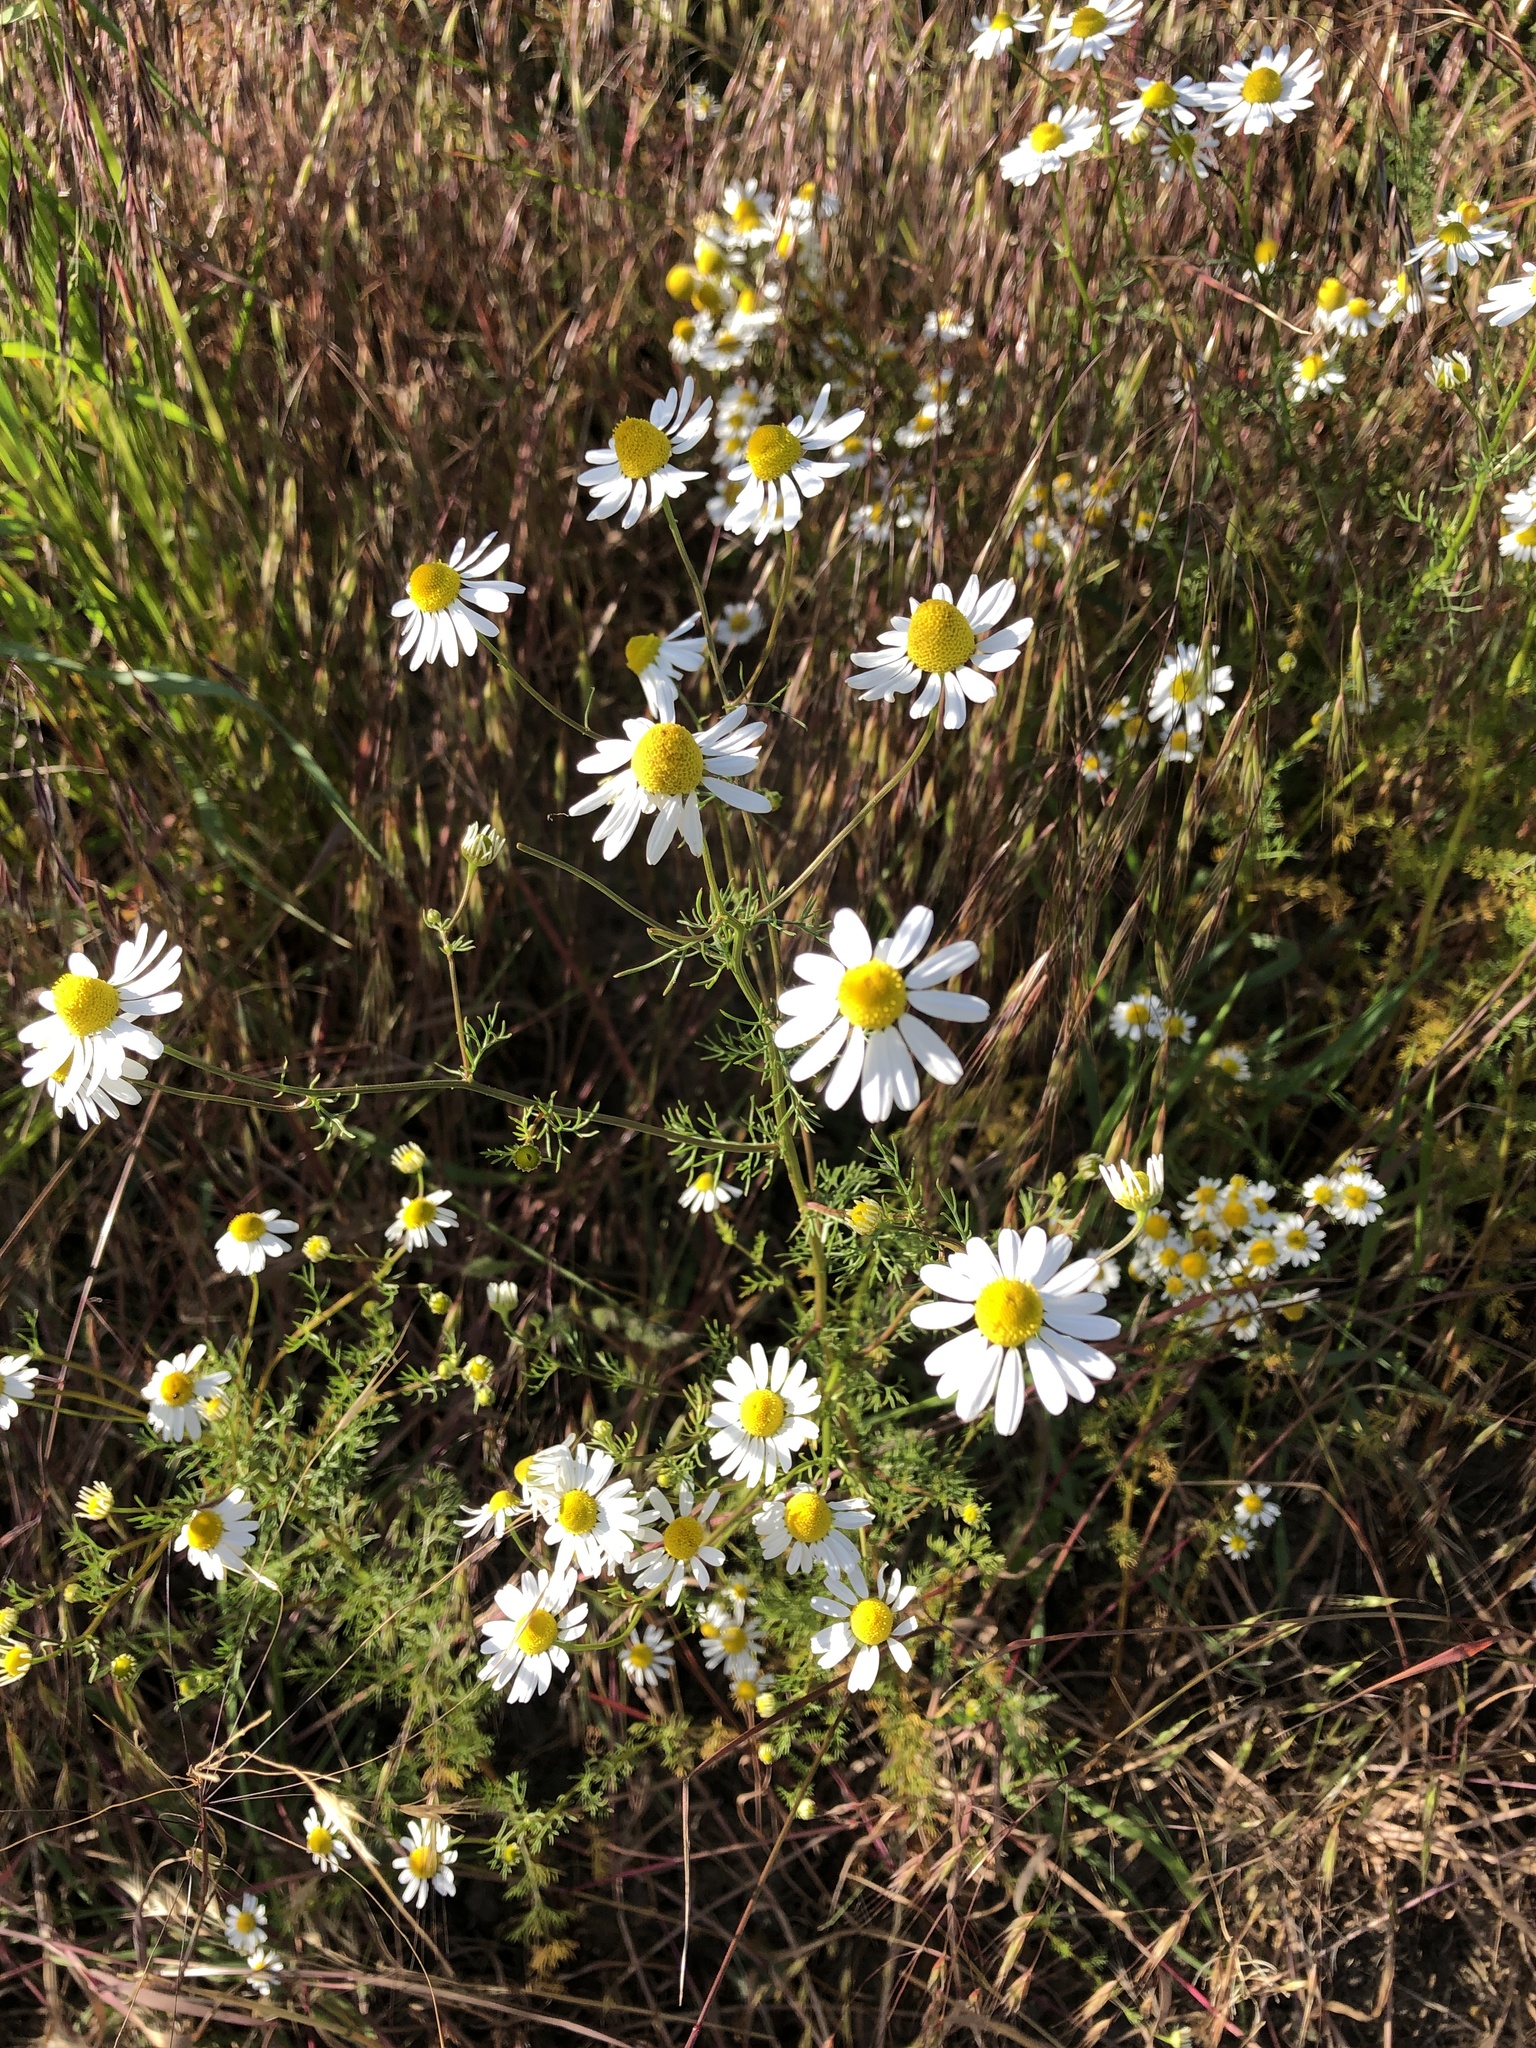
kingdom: Plantae
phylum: Tracheophyta
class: Magnoliopsida
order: Asterales
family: Asteraceae
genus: Matricaria
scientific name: Matricaria chamomilla
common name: Scented mayweed
